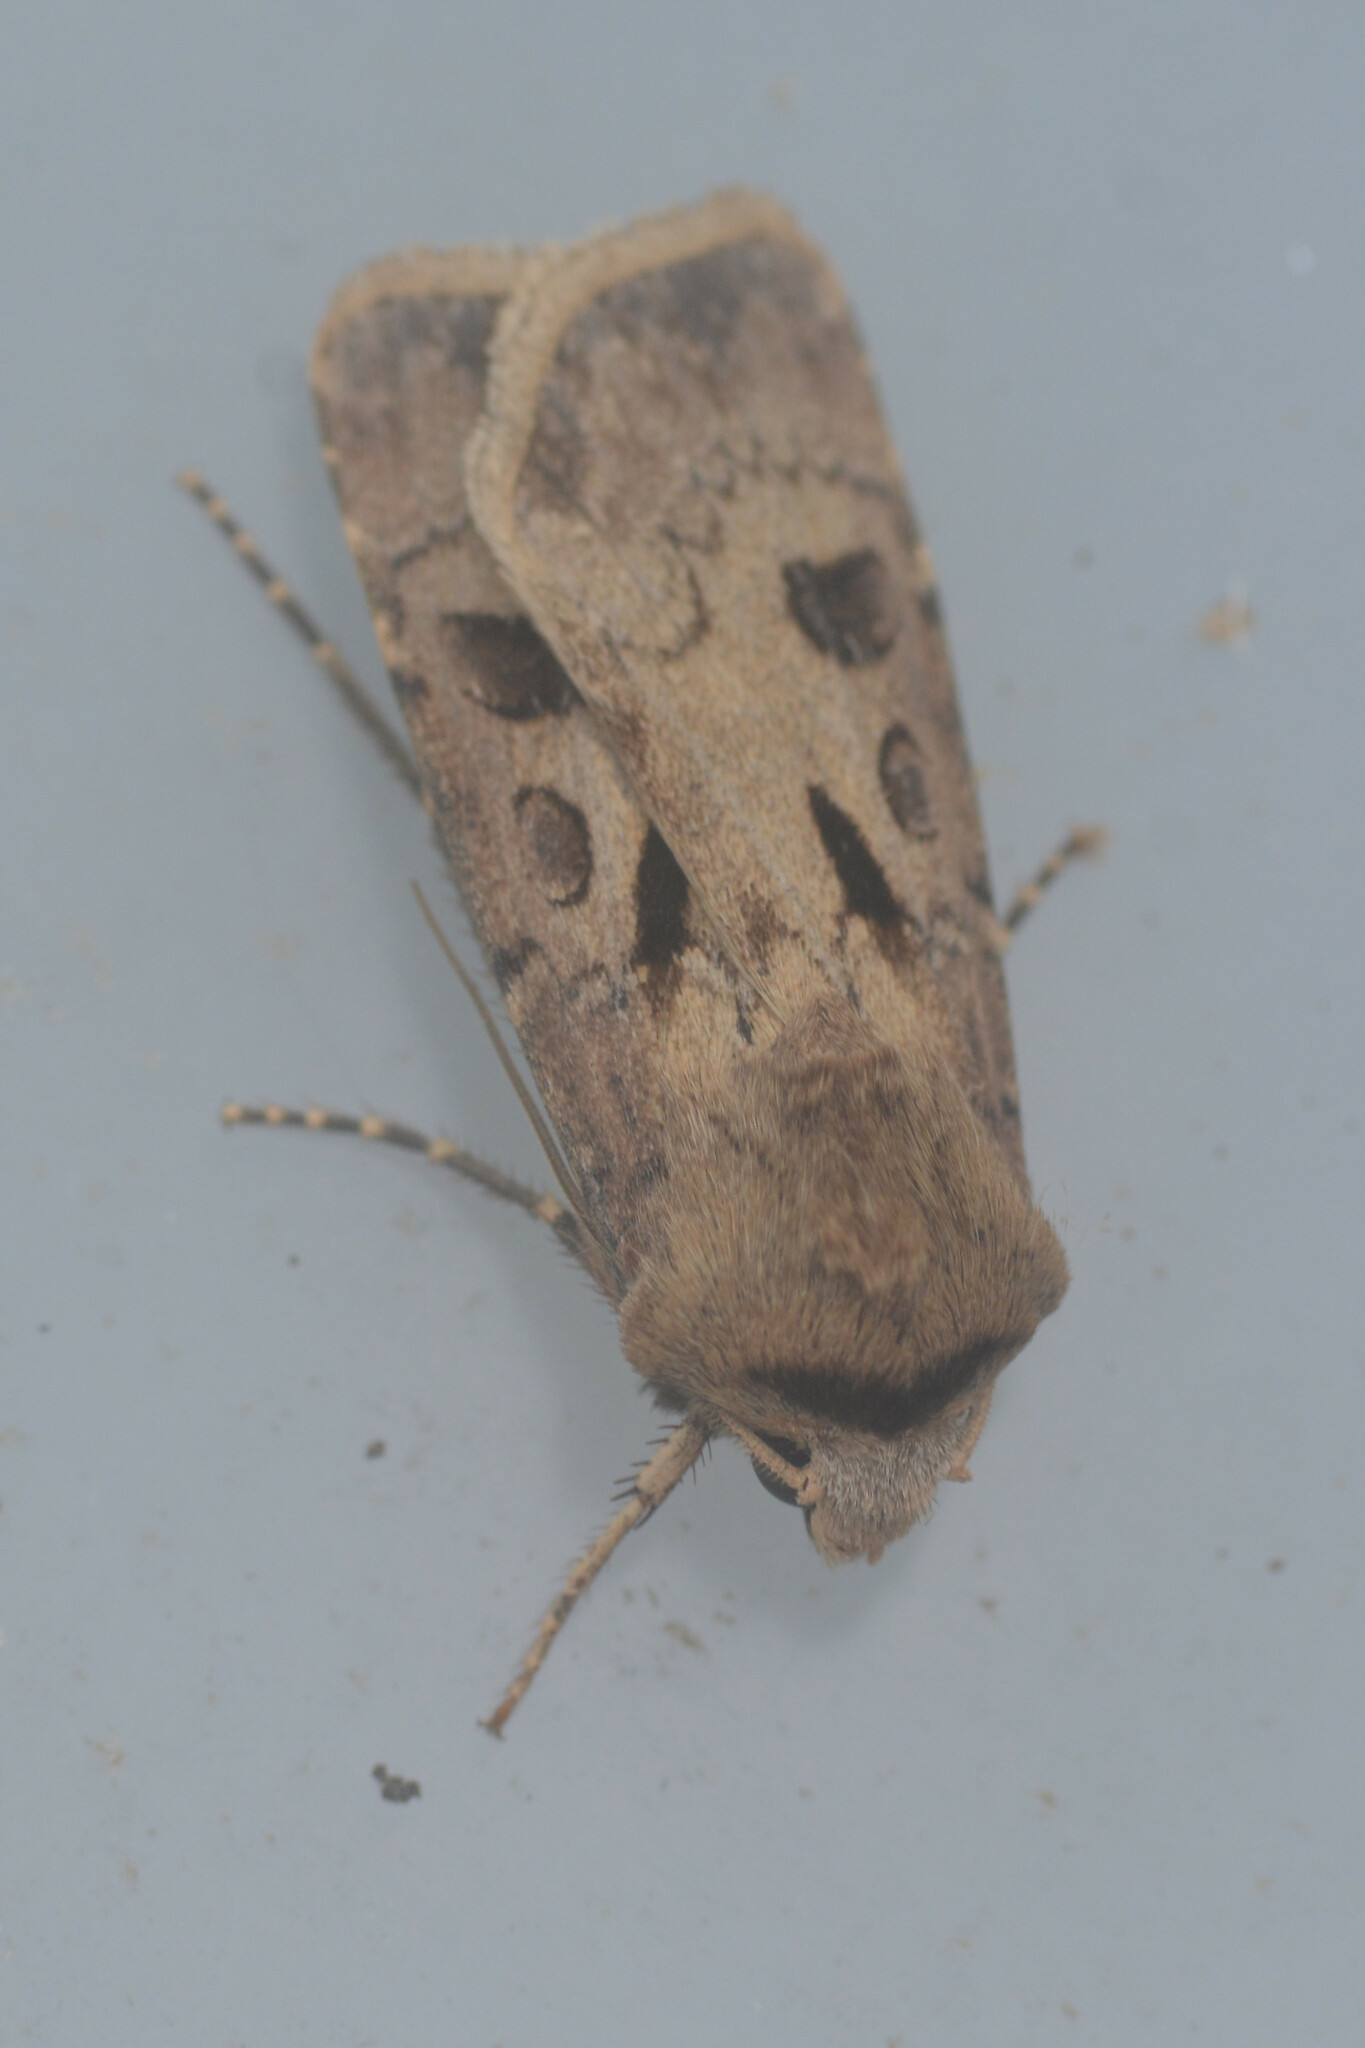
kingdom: Animalia
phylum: Arthropoda
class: Insecta
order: Lepidoptera
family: Noctuidae
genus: Agrotis
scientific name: Agrotis exclamationis
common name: Heart and dart
